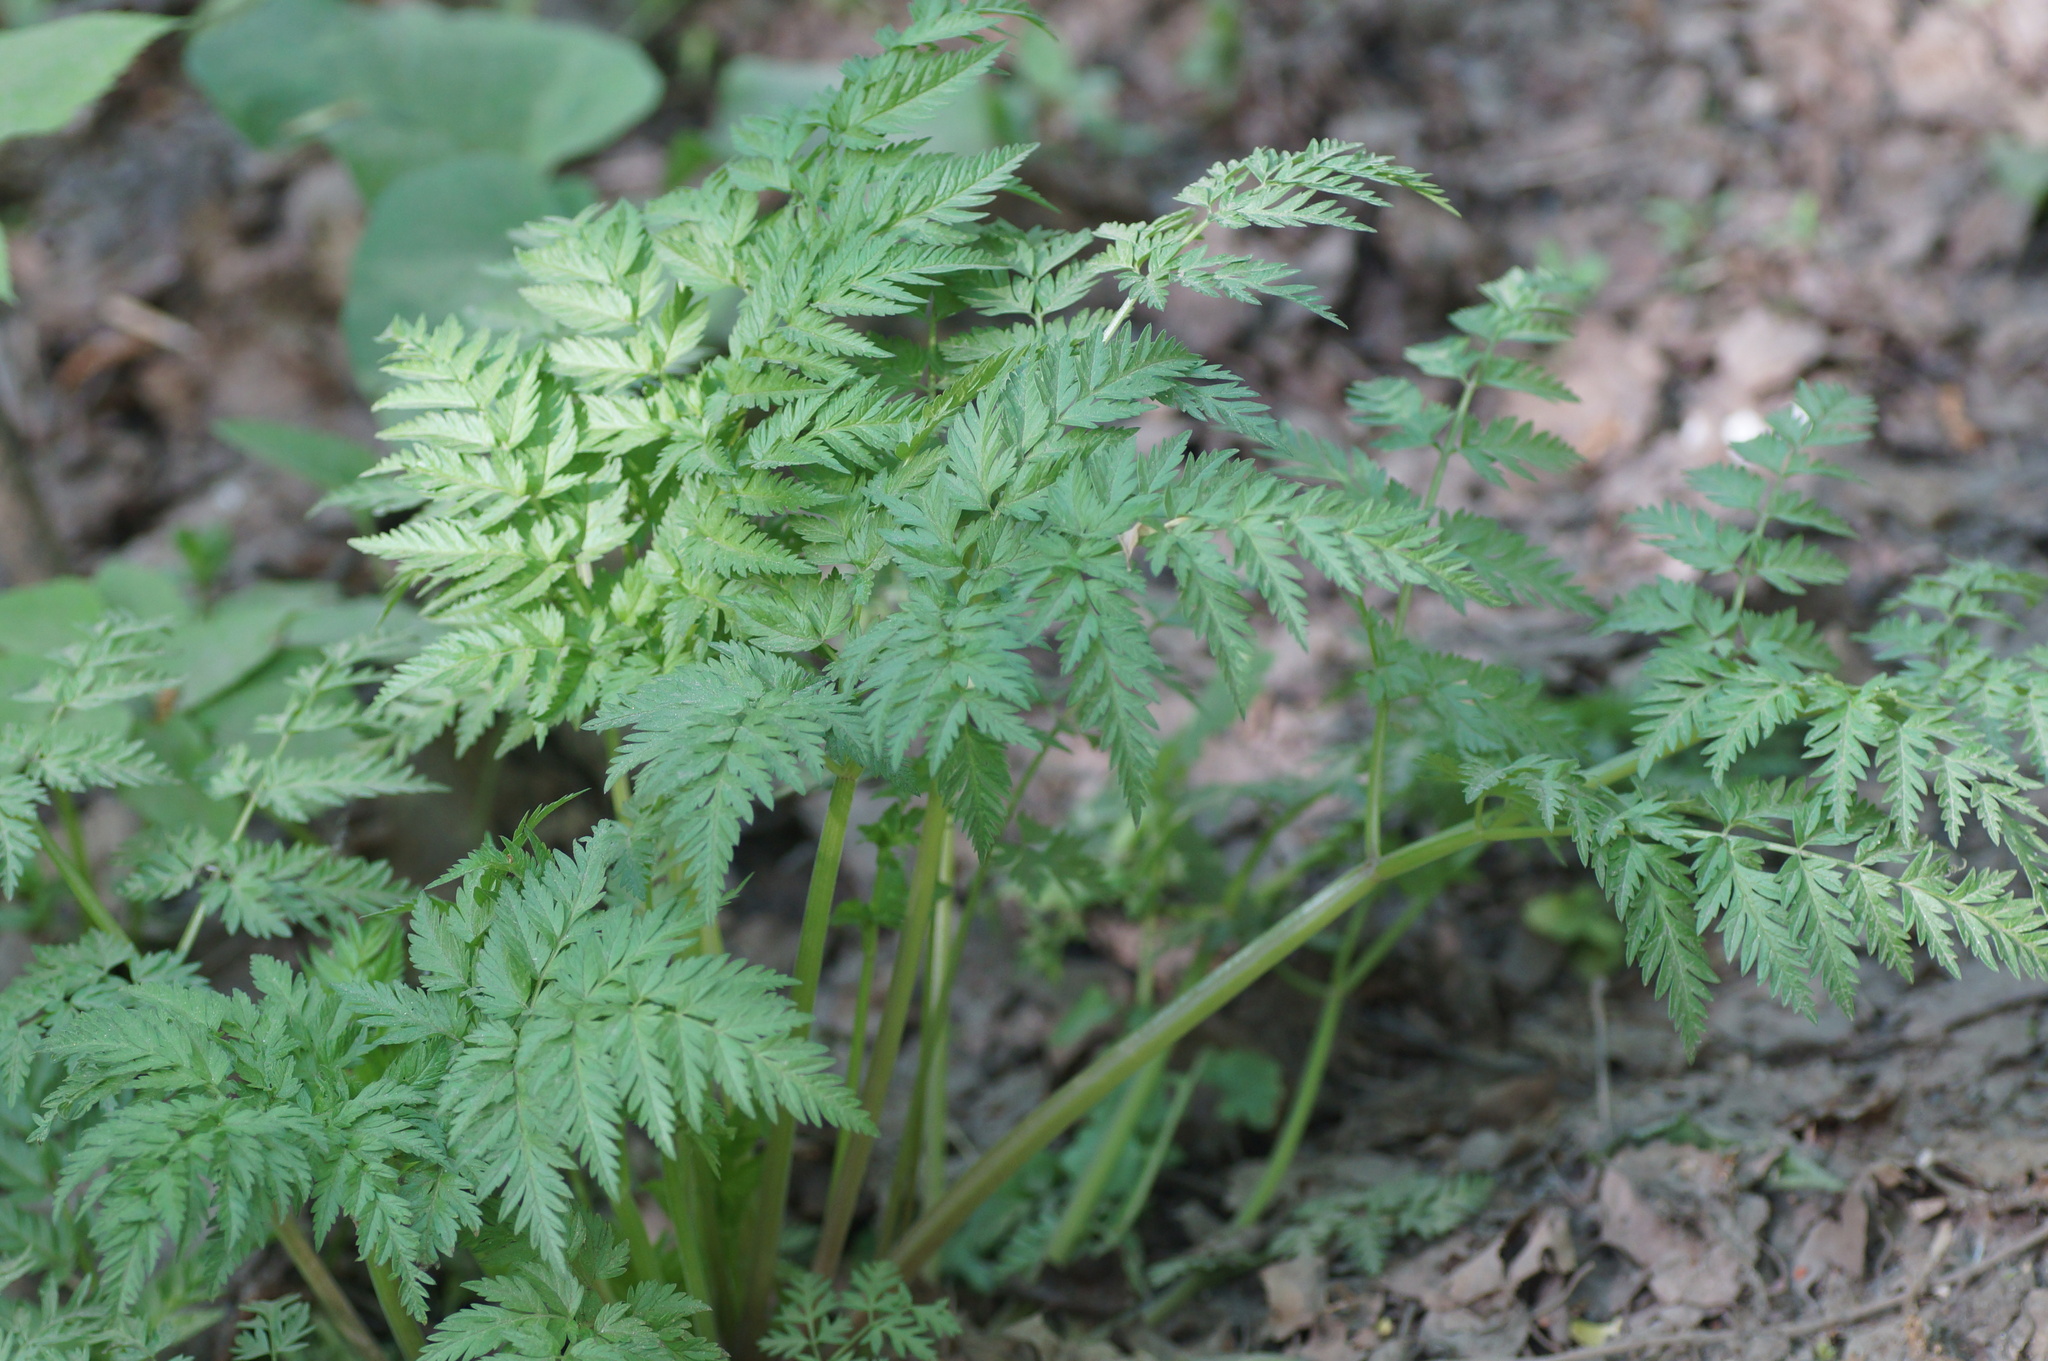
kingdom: Plantae
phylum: Tracheophyta
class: Magnoliopsida
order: Apiales
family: Apiaceae
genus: Anthriscus
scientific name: Anthriscus sylvestris
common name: Cow parsley
